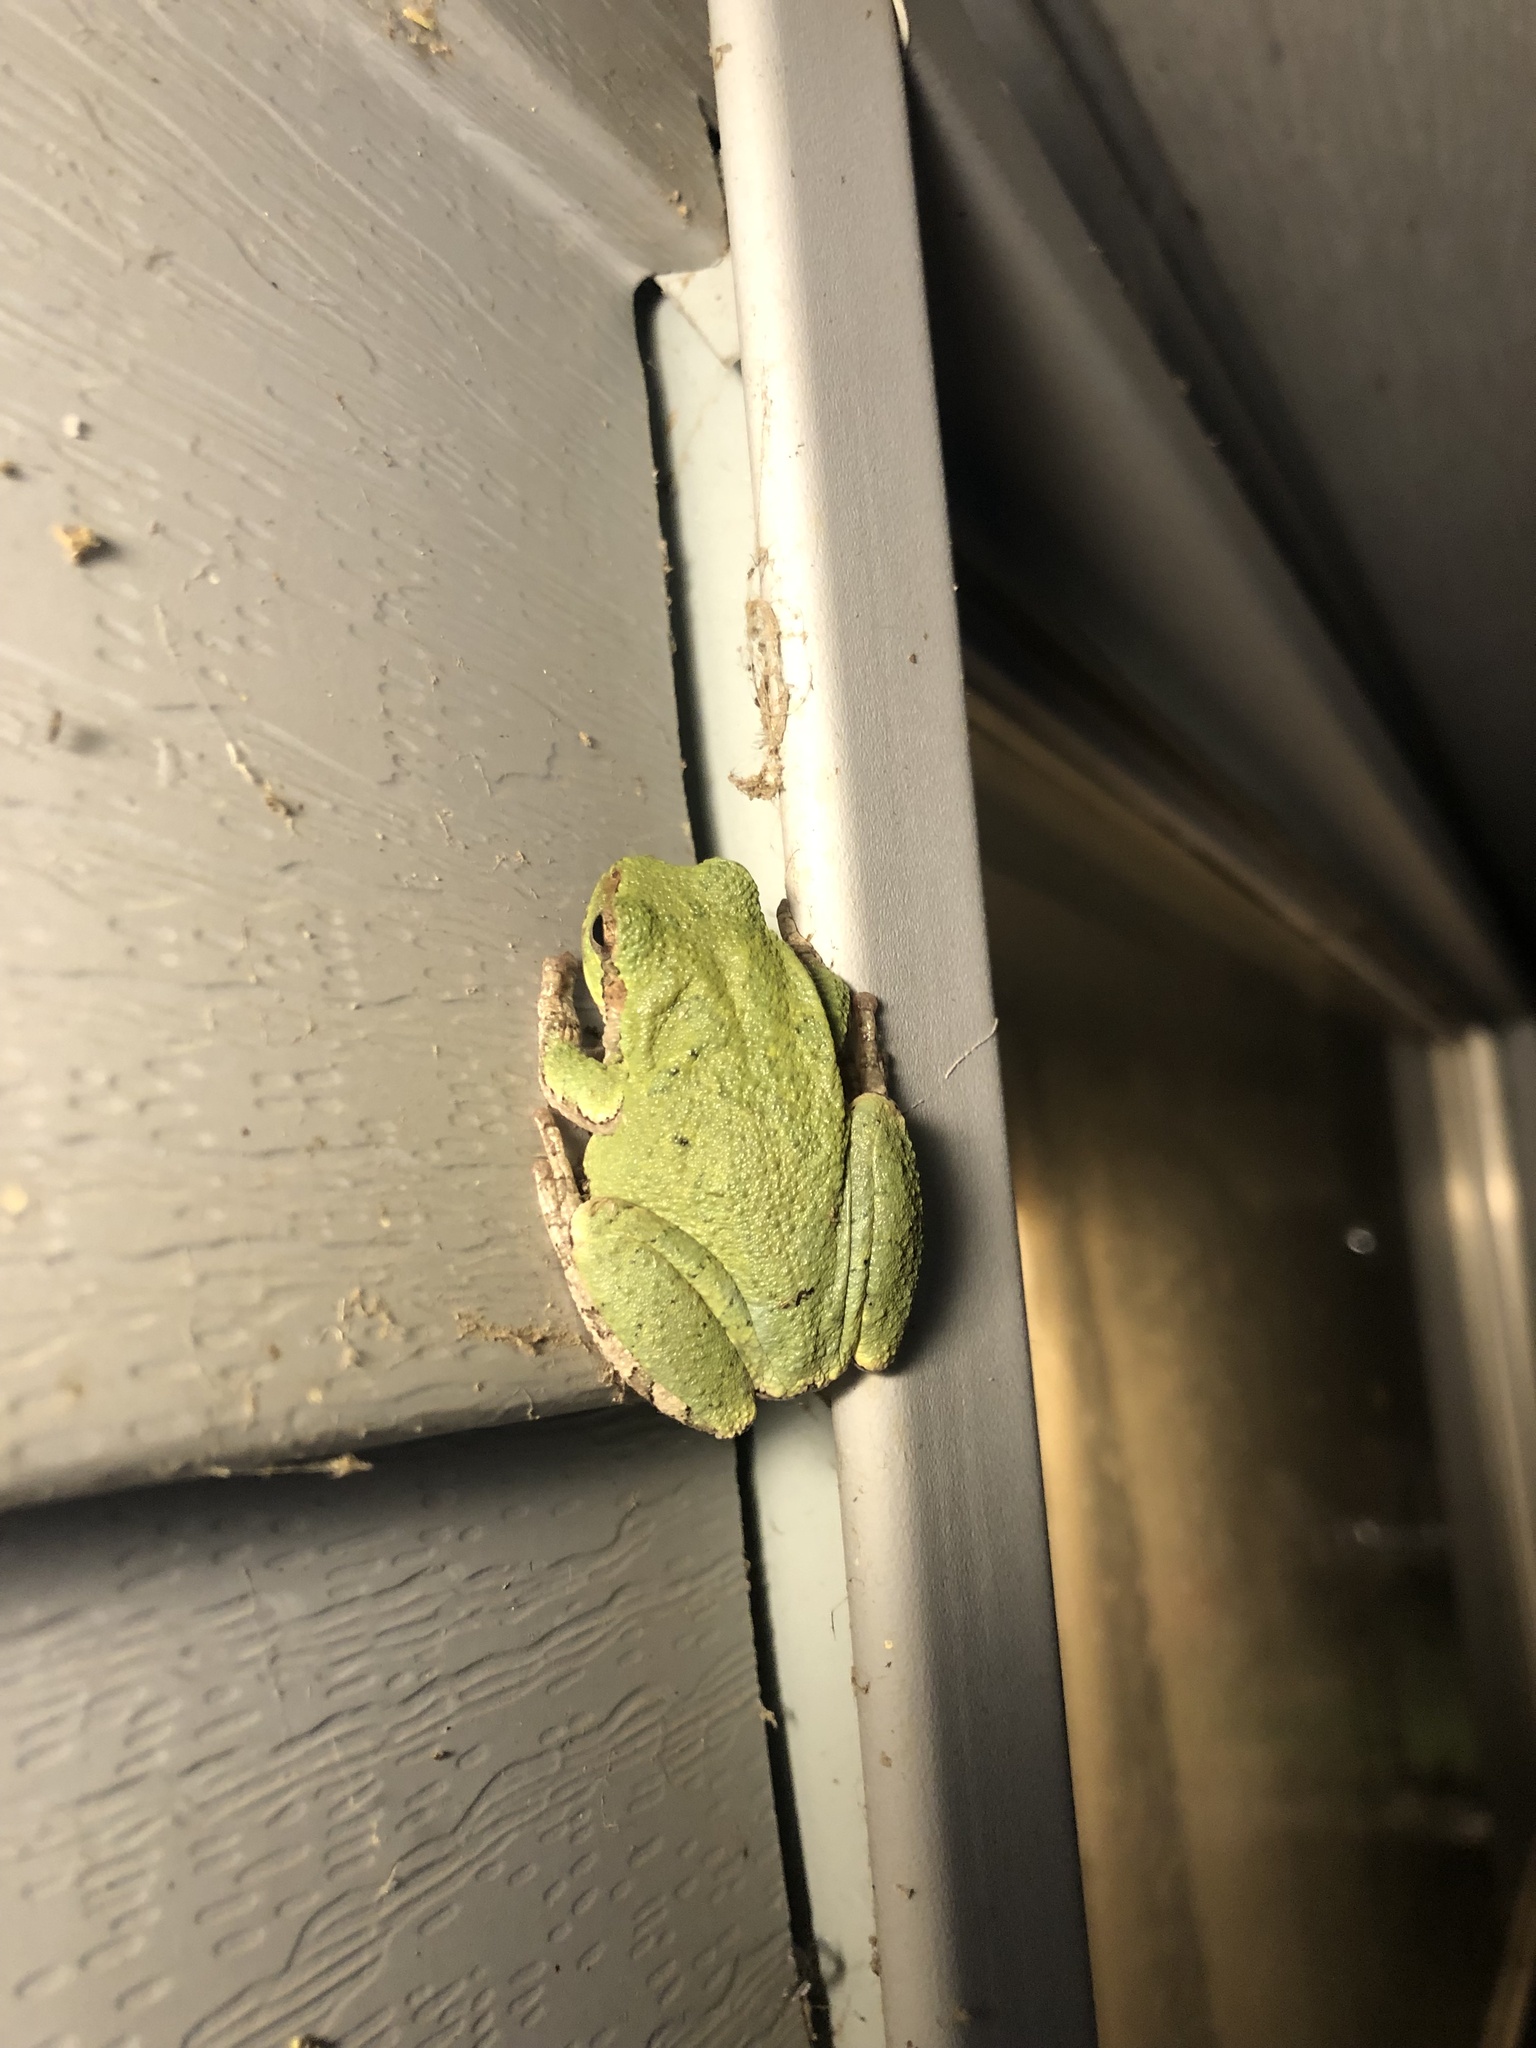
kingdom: Animalia
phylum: Chordata
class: Amphibia
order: Anura
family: Hylidae
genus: Hyla
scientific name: Hyla
